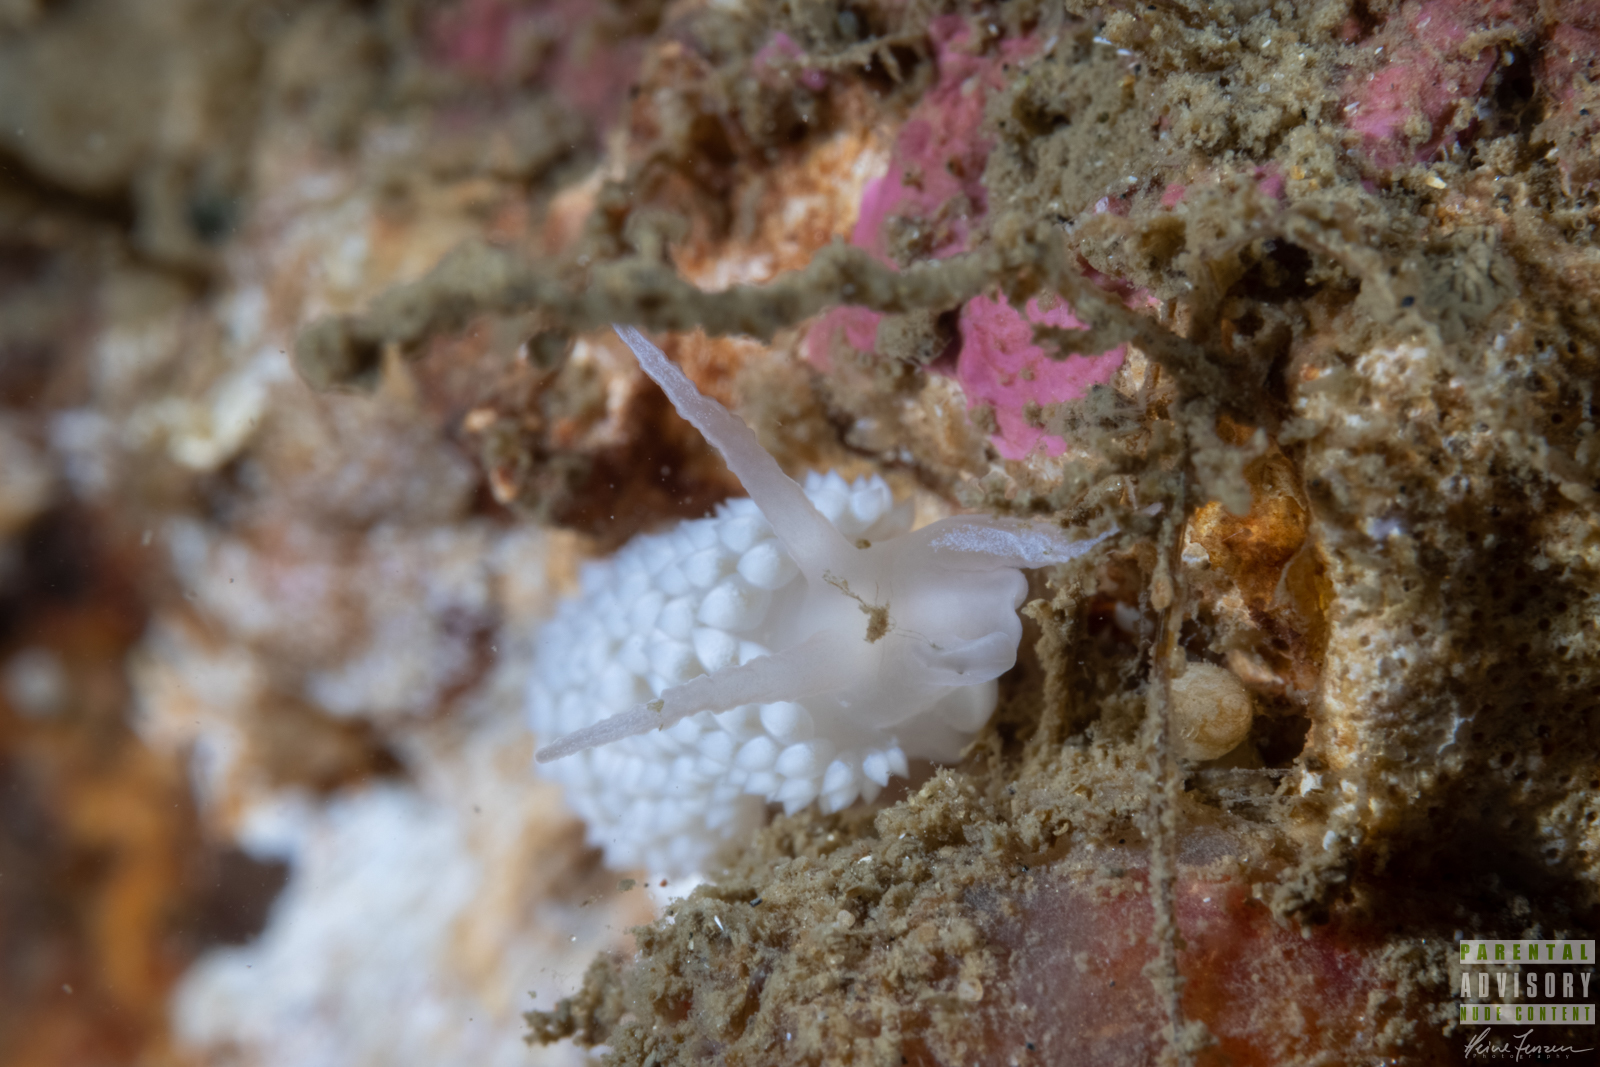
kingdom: Animalia
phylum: Mollusca
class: Gastropoda
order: Nudibranchia
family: Coryphellidae
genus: Coryphella
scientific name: Coryphella verrucosa
